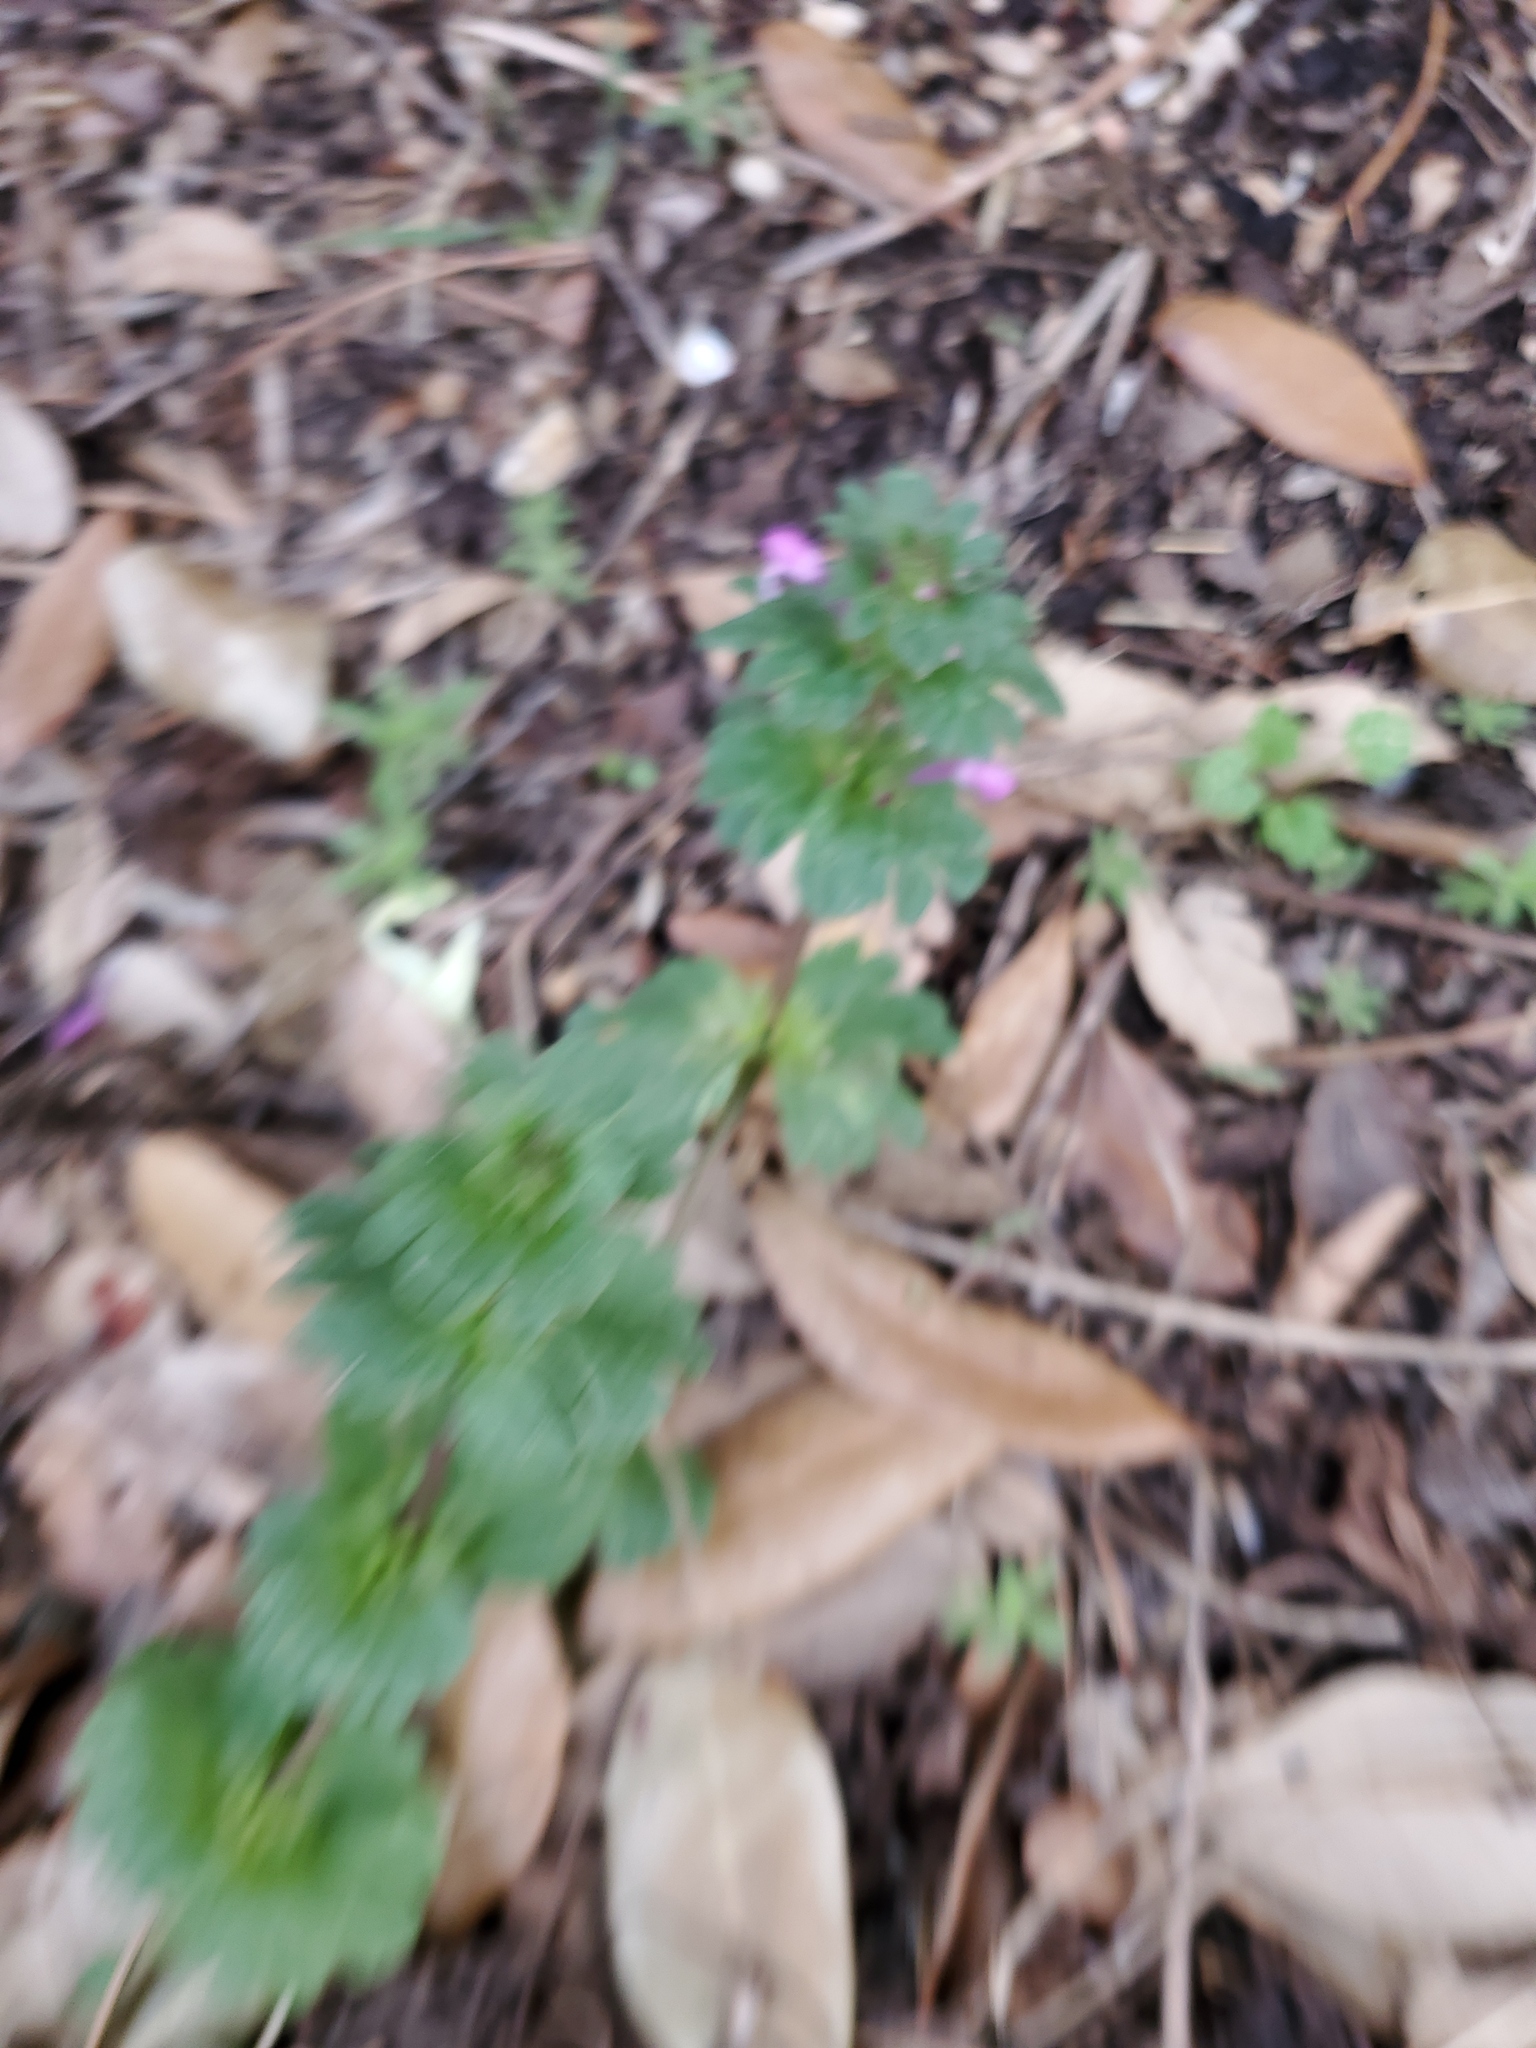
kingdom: Plantae
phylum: Tracheophyta
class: Magnoliopsida
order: Lamiales
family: Lamiaceae
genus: Lamium
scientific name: Lamium amplexicaule
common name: Henbit dead-nettle
